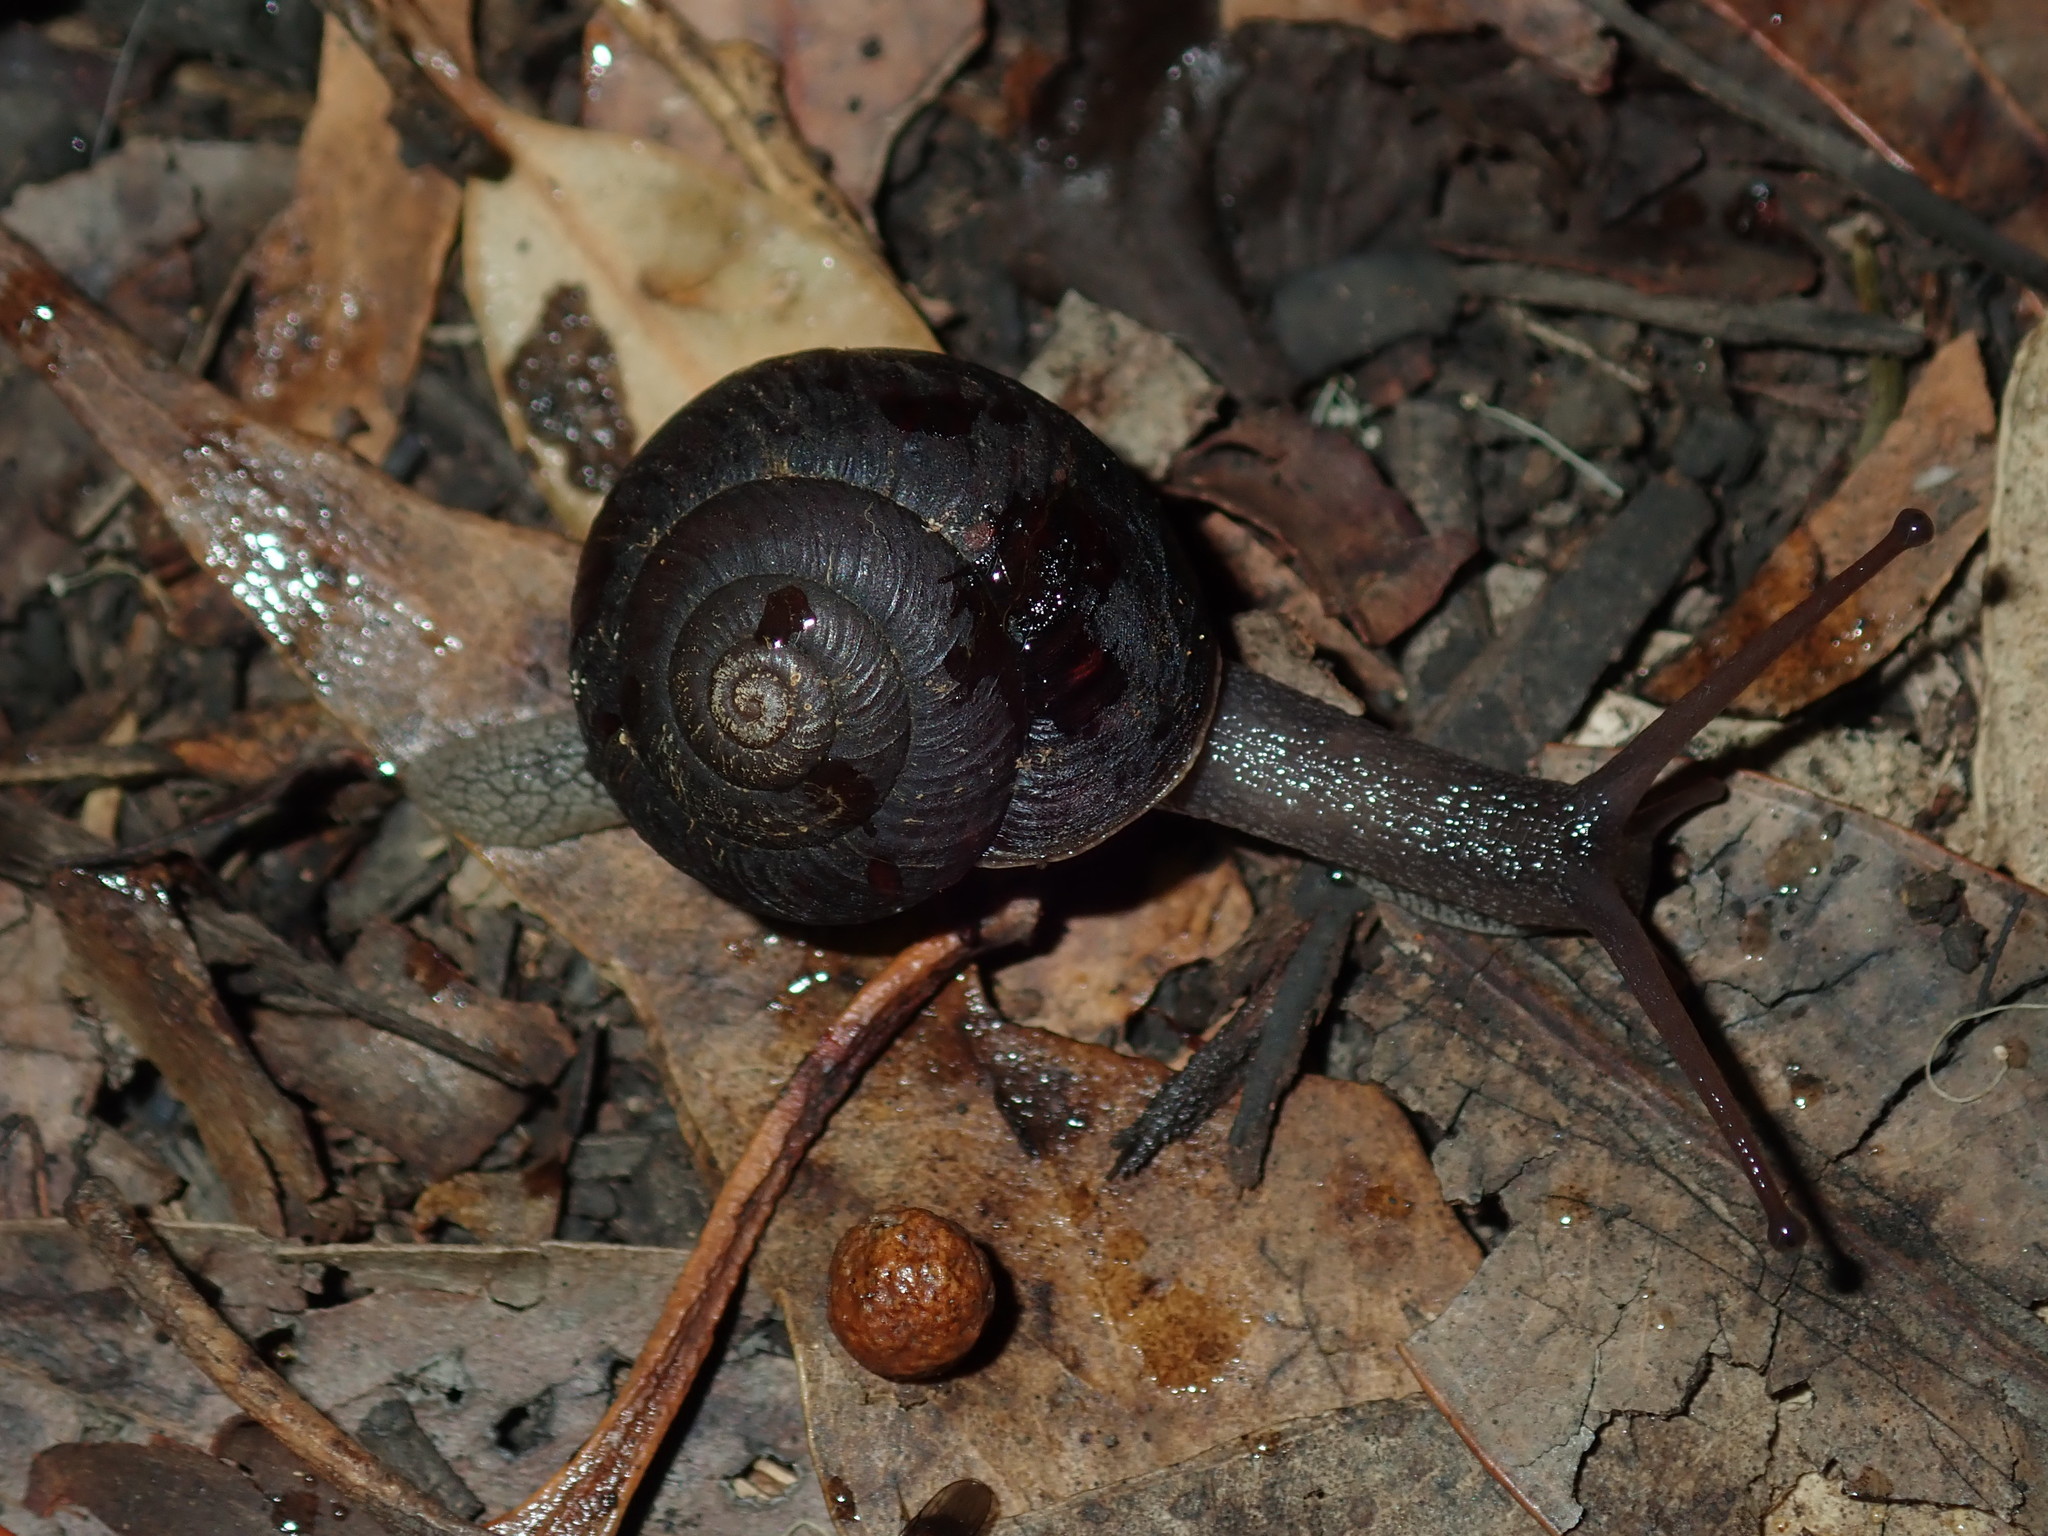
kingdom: Animalia
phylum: Mollusca
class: Gastropoda
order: Stylommatophora
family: Camaenidae
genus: Sauroconcha
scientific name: Sauroconcha sheai
